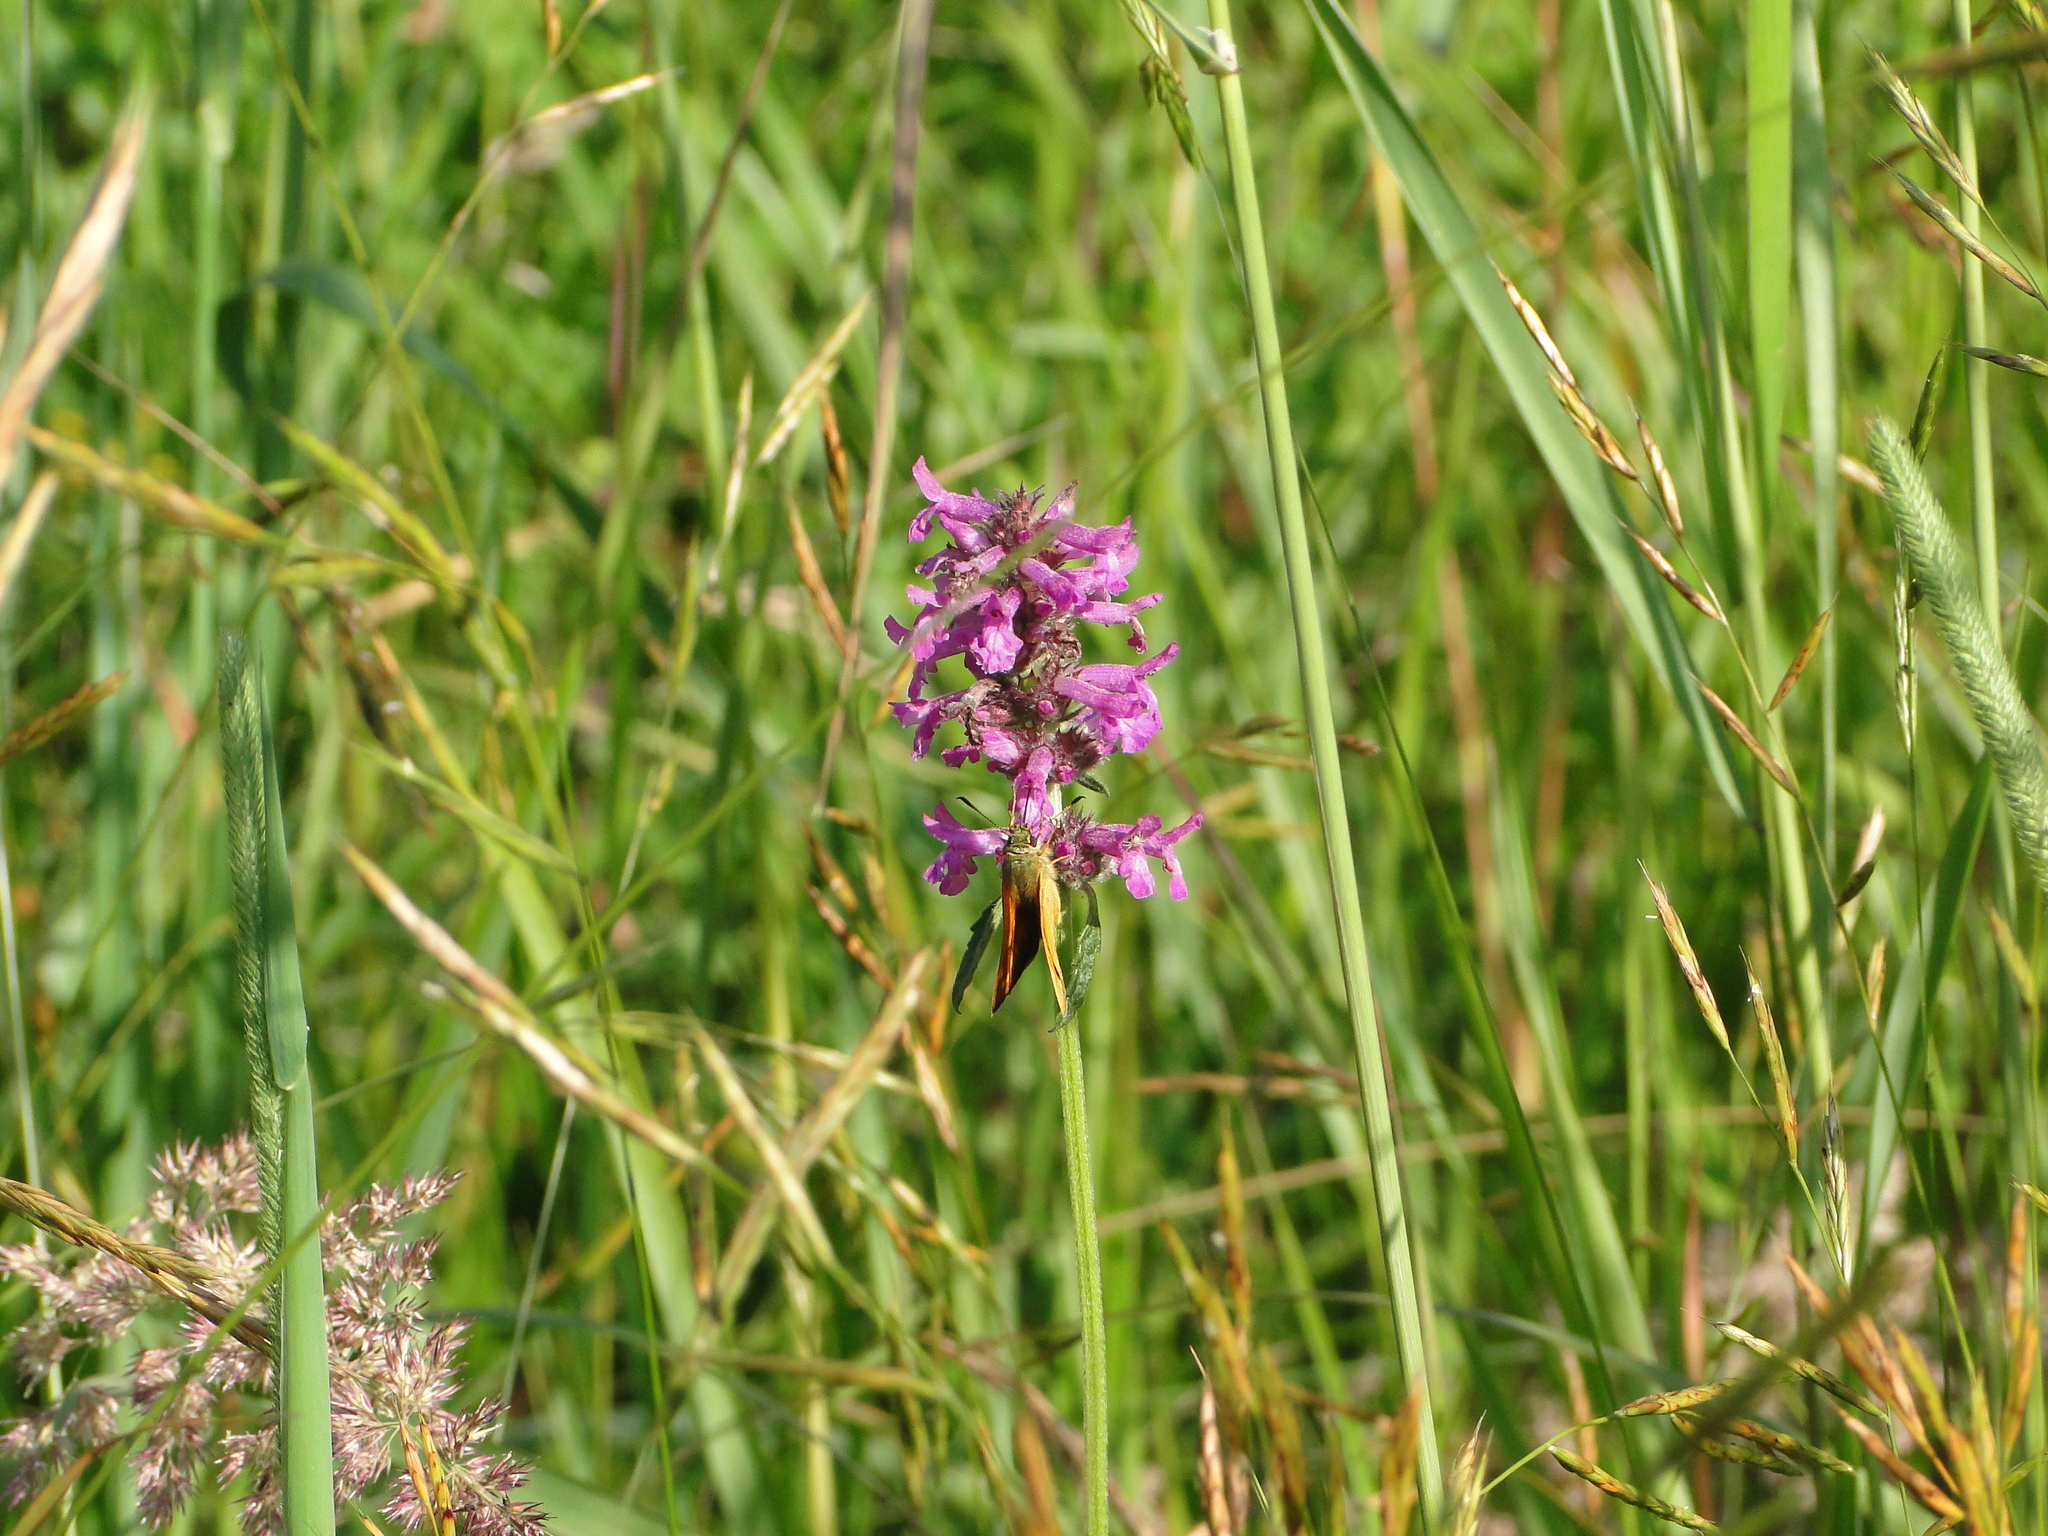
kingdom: Plantae
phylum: Tracheophyta
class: Magnoliopsida
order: Lamiales
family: Lamiaceae
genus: Betonica
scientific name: Betonica officinalis
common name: Bishop's-wort
